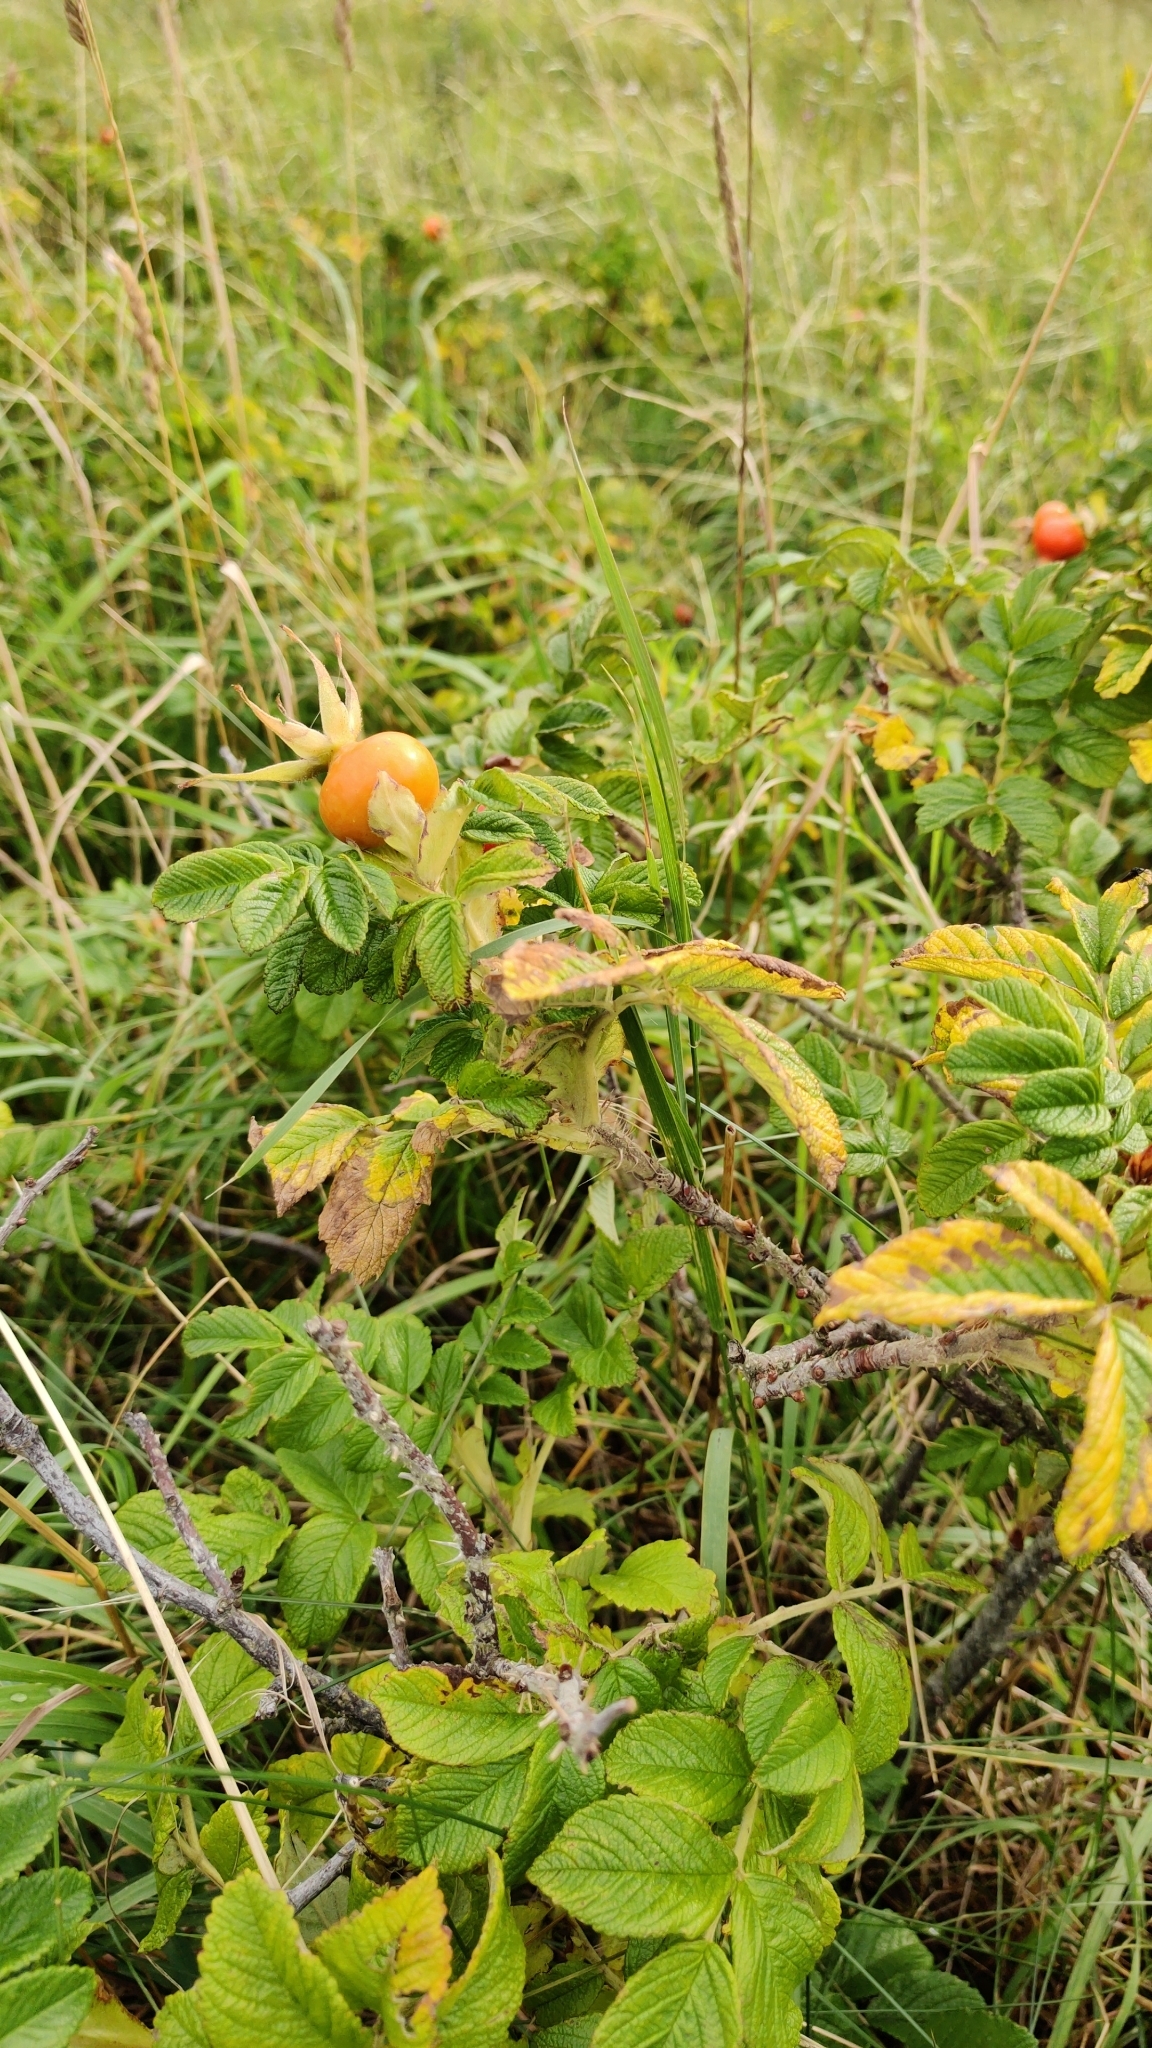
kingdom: Plantae
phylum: Tracheophyta
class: Magnoliopsida
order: Rosales
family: Rosaceae
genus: Rosa
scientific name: Rosa rugosa
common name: Japanese rose
